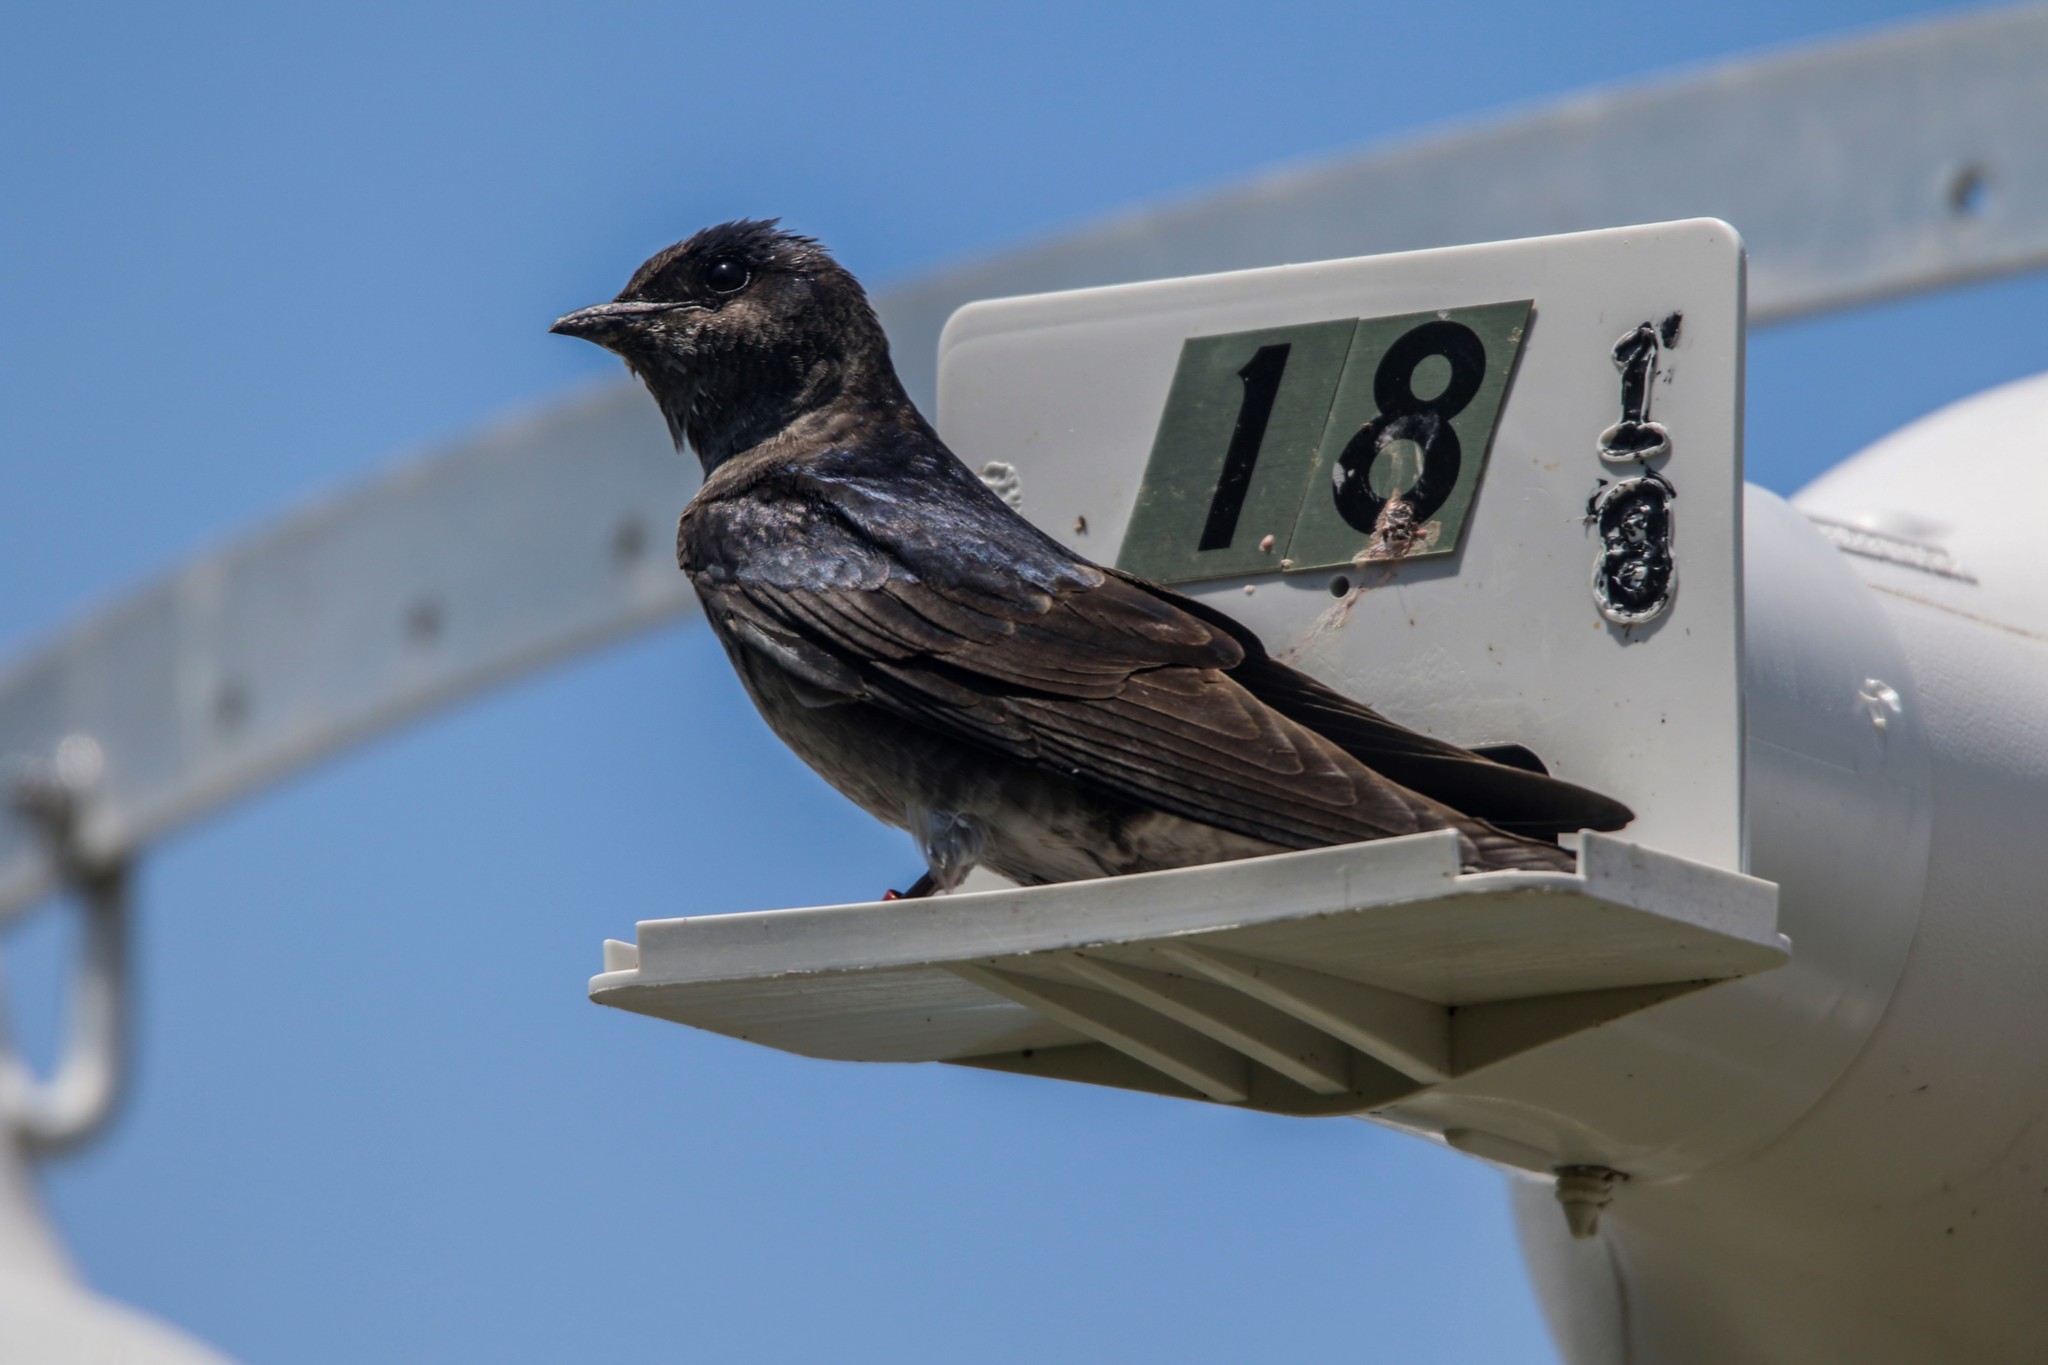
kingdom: Animalia
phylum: Chordata
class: Aves
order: Passeriformes
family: Hirundinidae
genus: Progne
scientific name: Progne subis
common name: Purple martin
